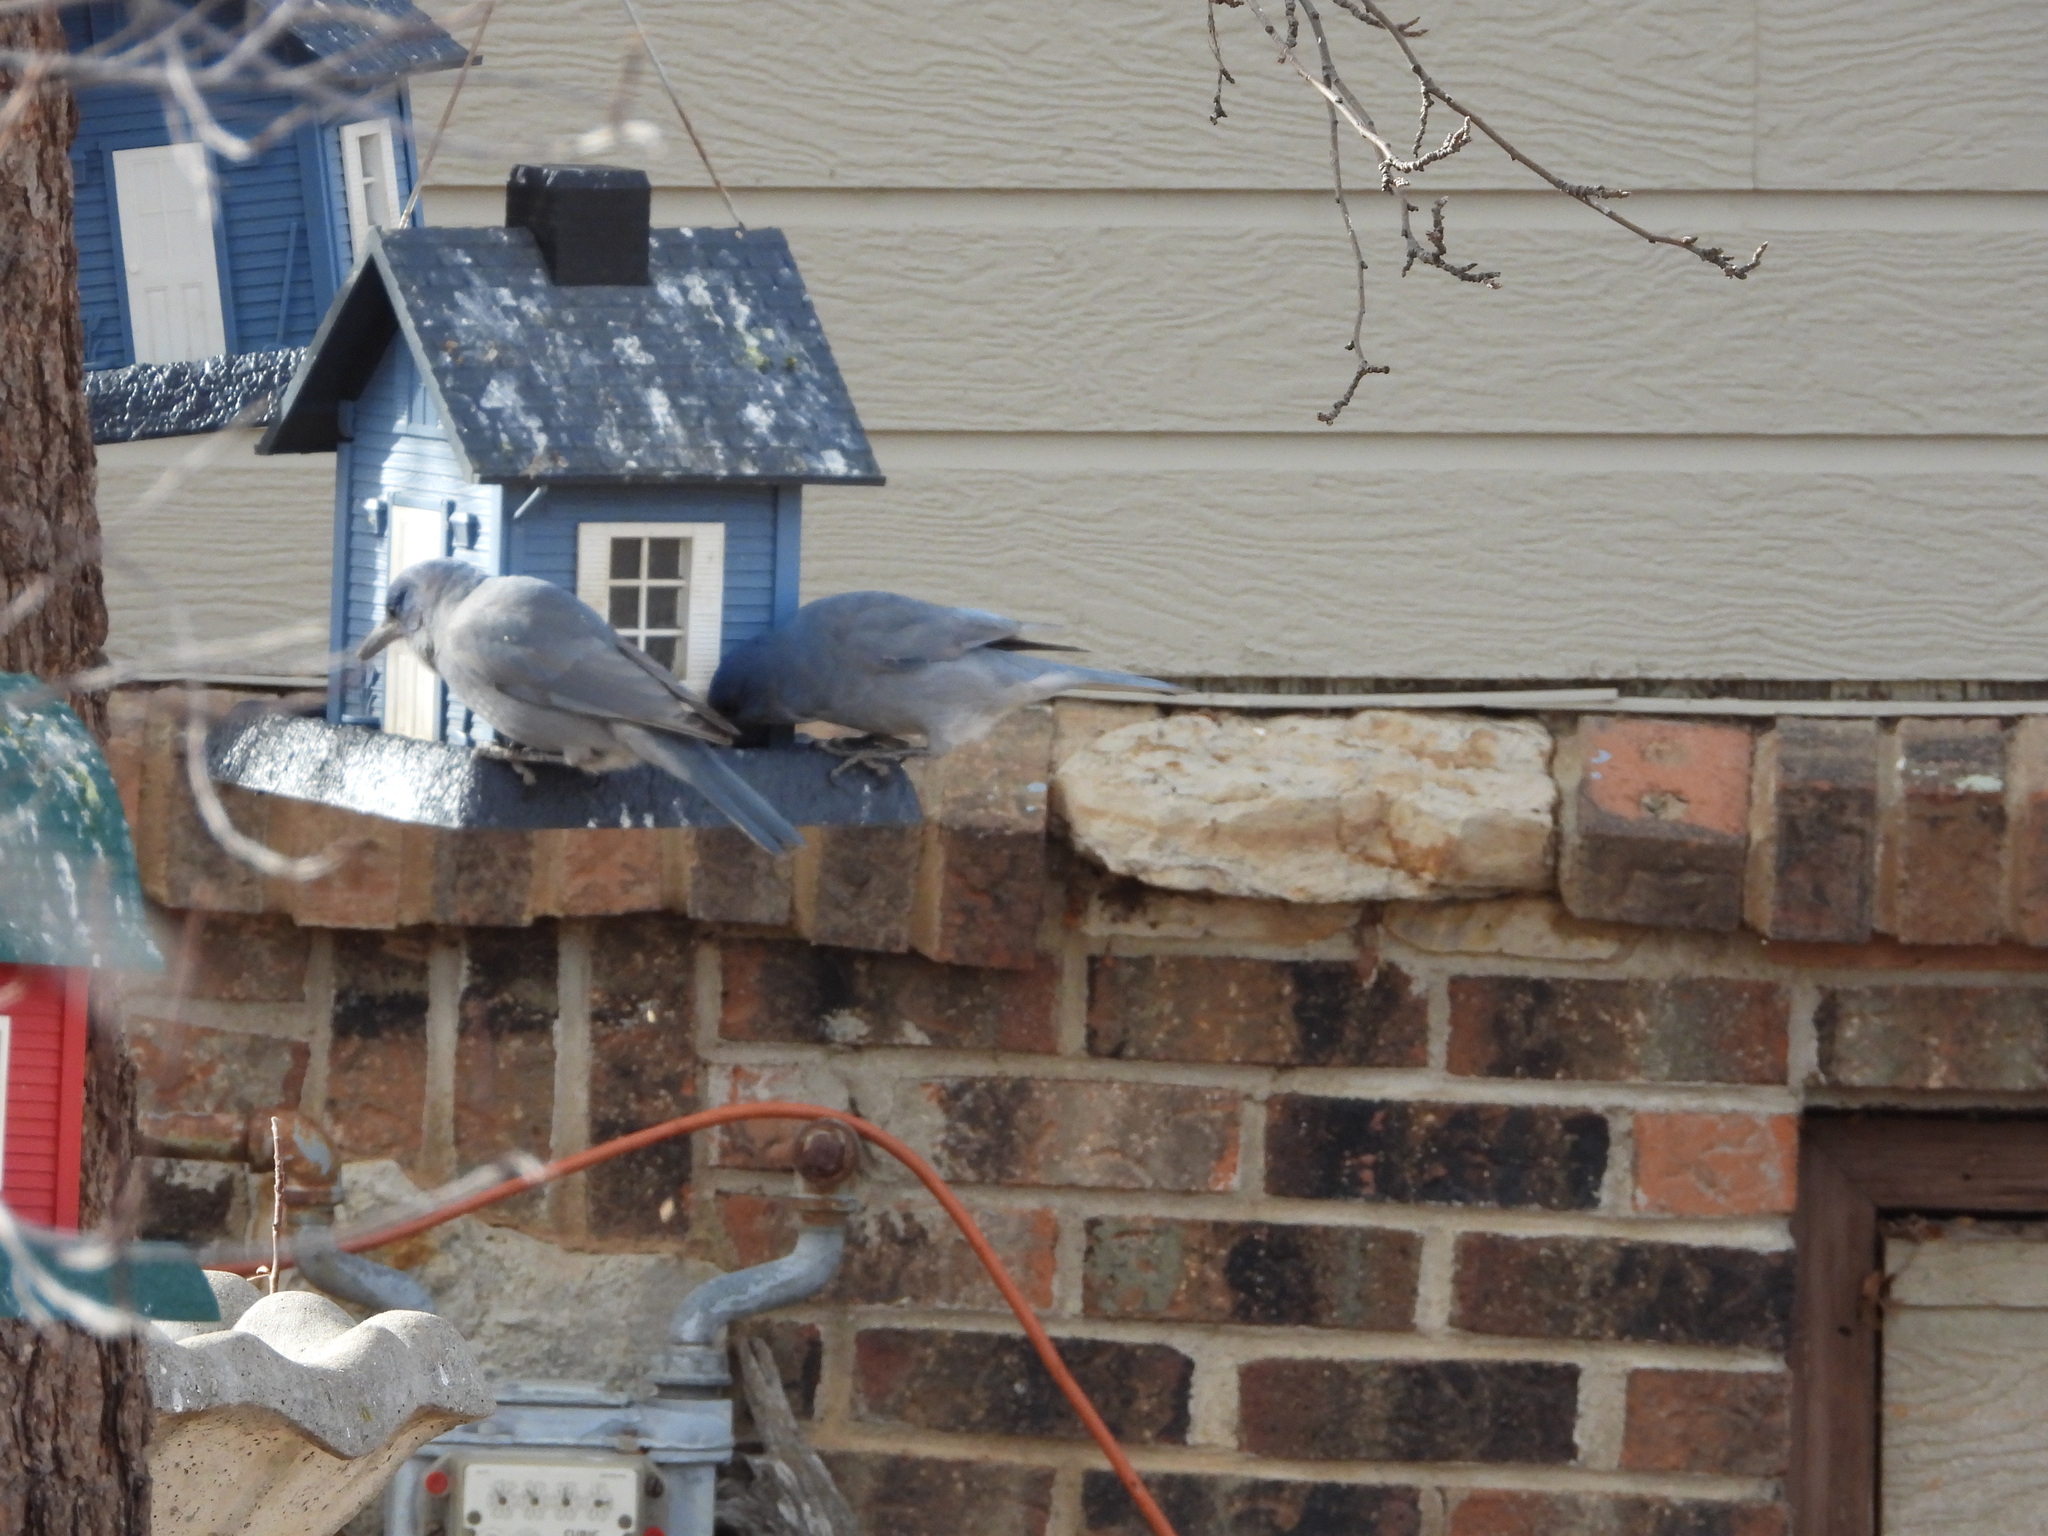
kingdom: Animalia
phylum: Chordata
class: Aves
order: Passeriformes
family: Corvidae
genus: Gymnorhinus
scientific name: Gymnorhinus cyanocephalus
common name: Pinyon jay
